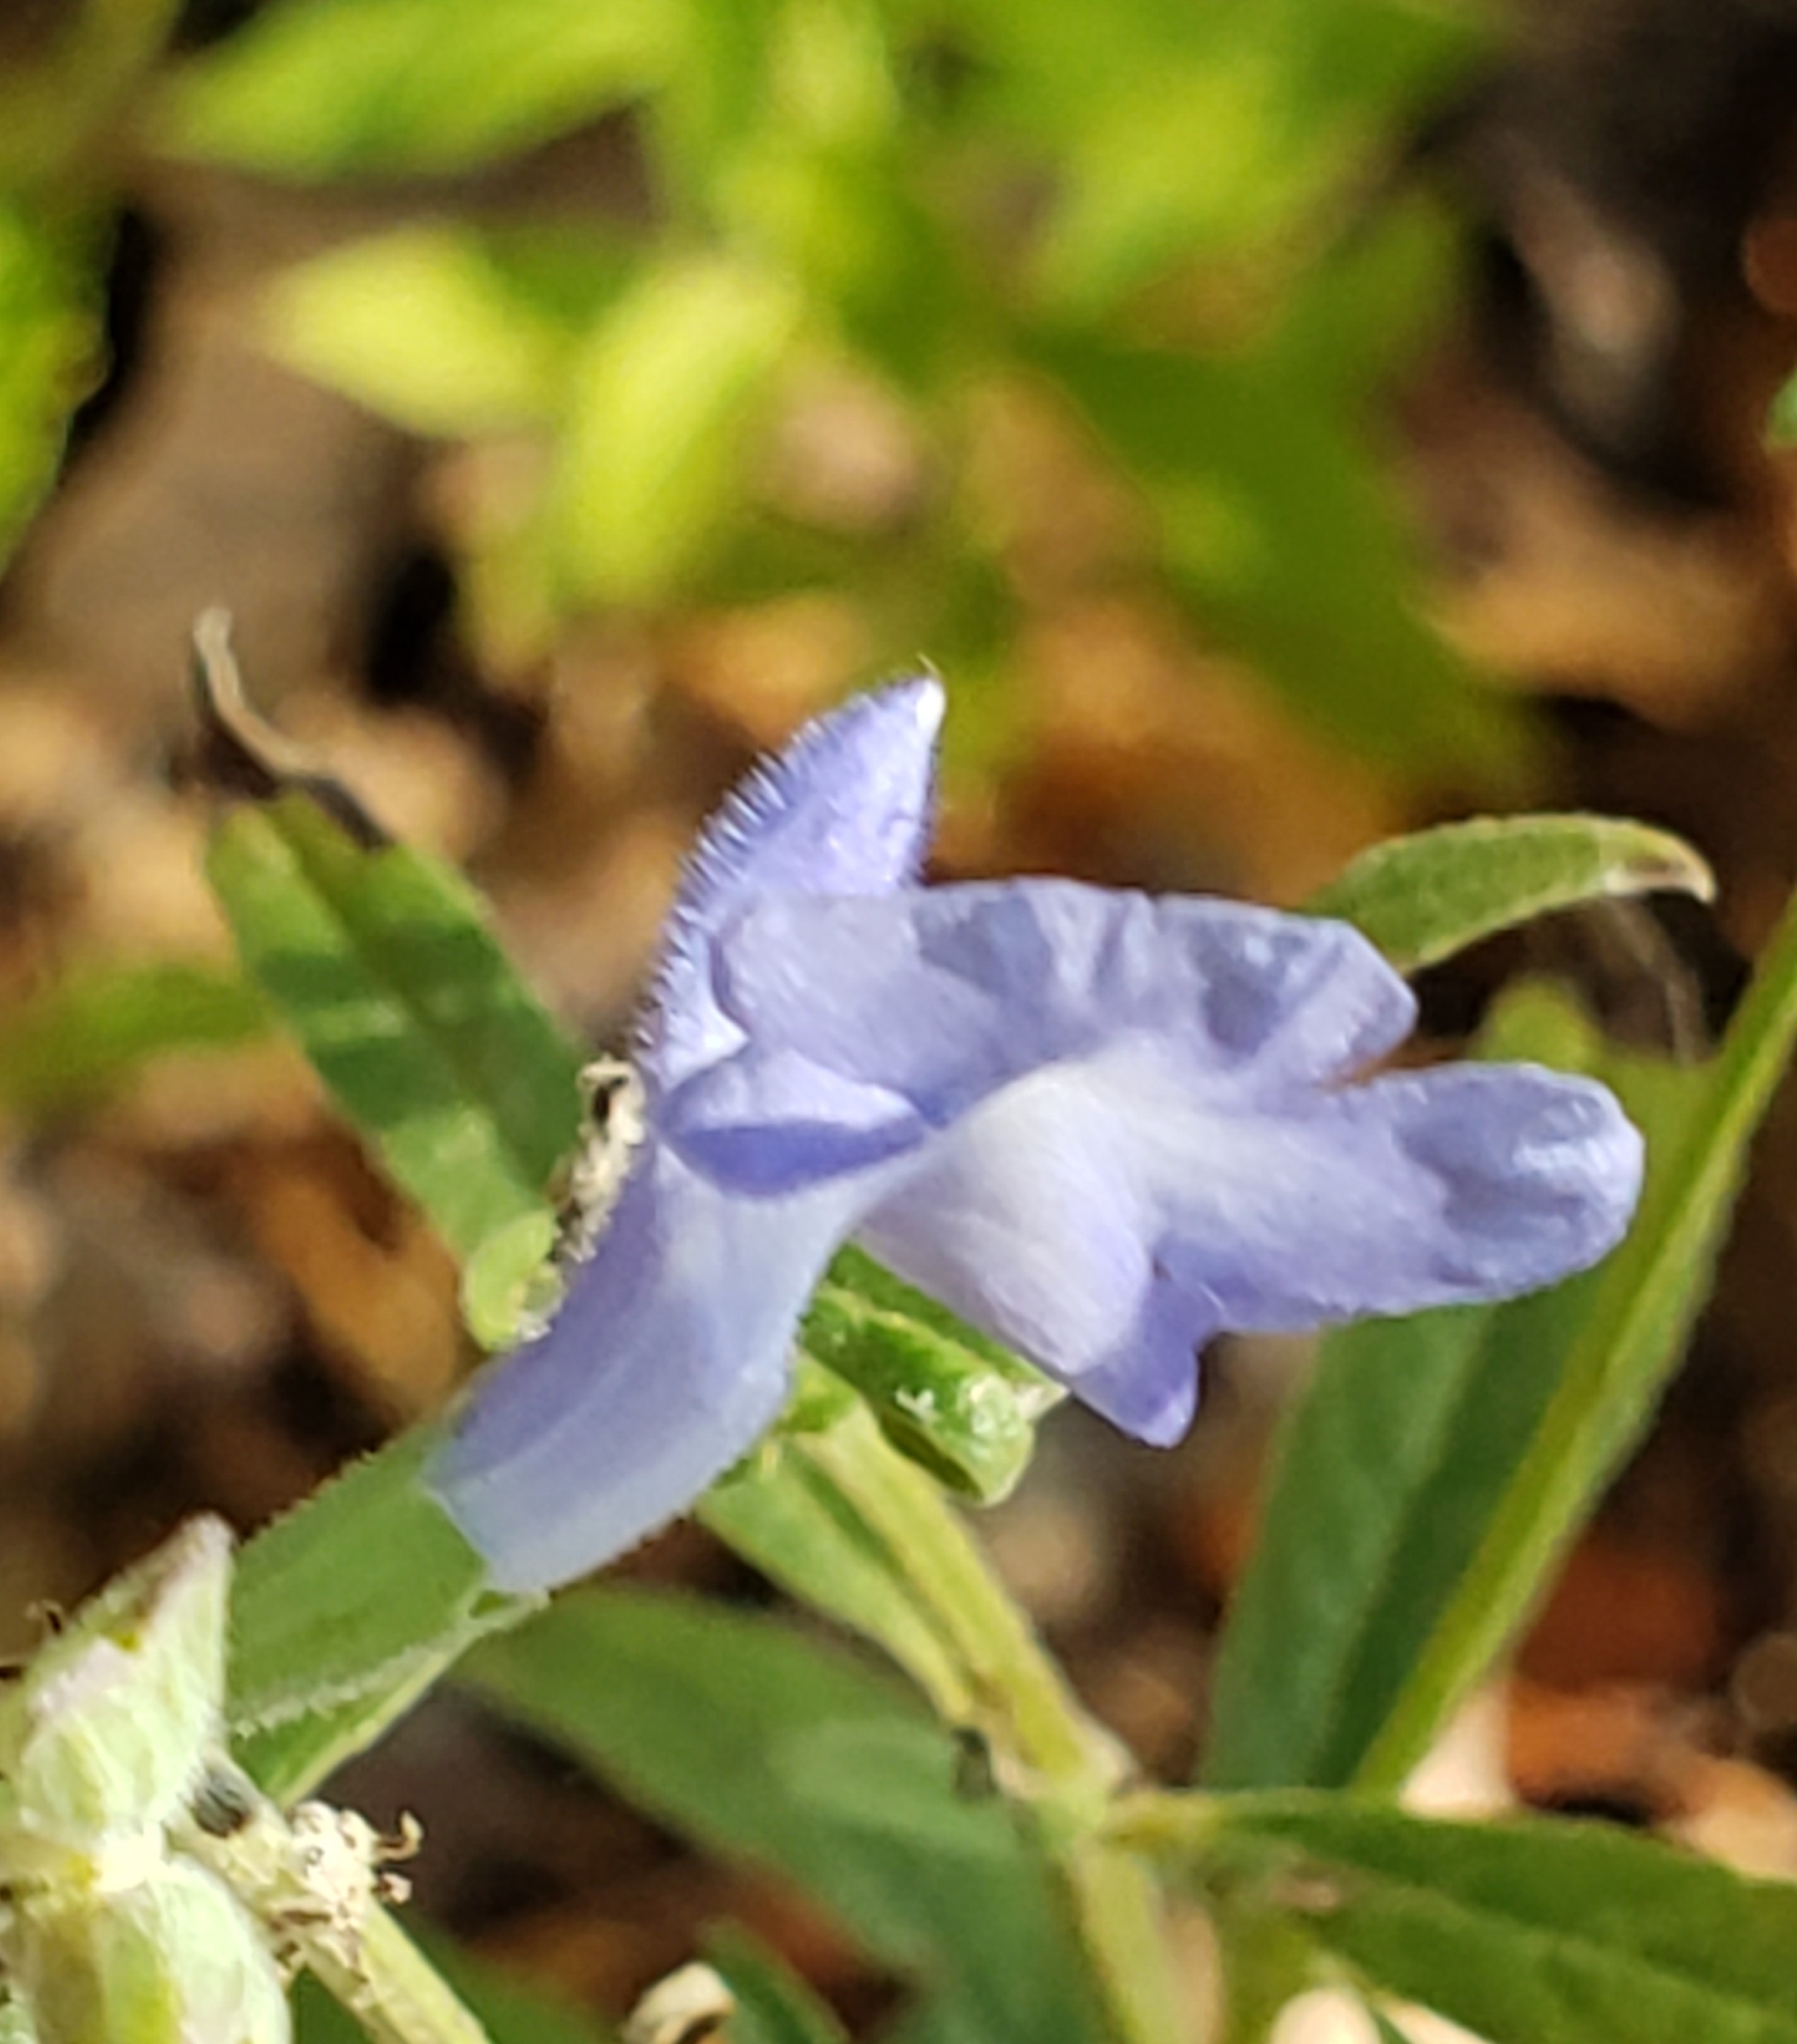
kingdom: Plantae
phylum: Tracheophyta
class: Magnoliopsida
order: Lamiales
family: Lamiaceae
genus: Salvia
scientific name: Salvia azurea
